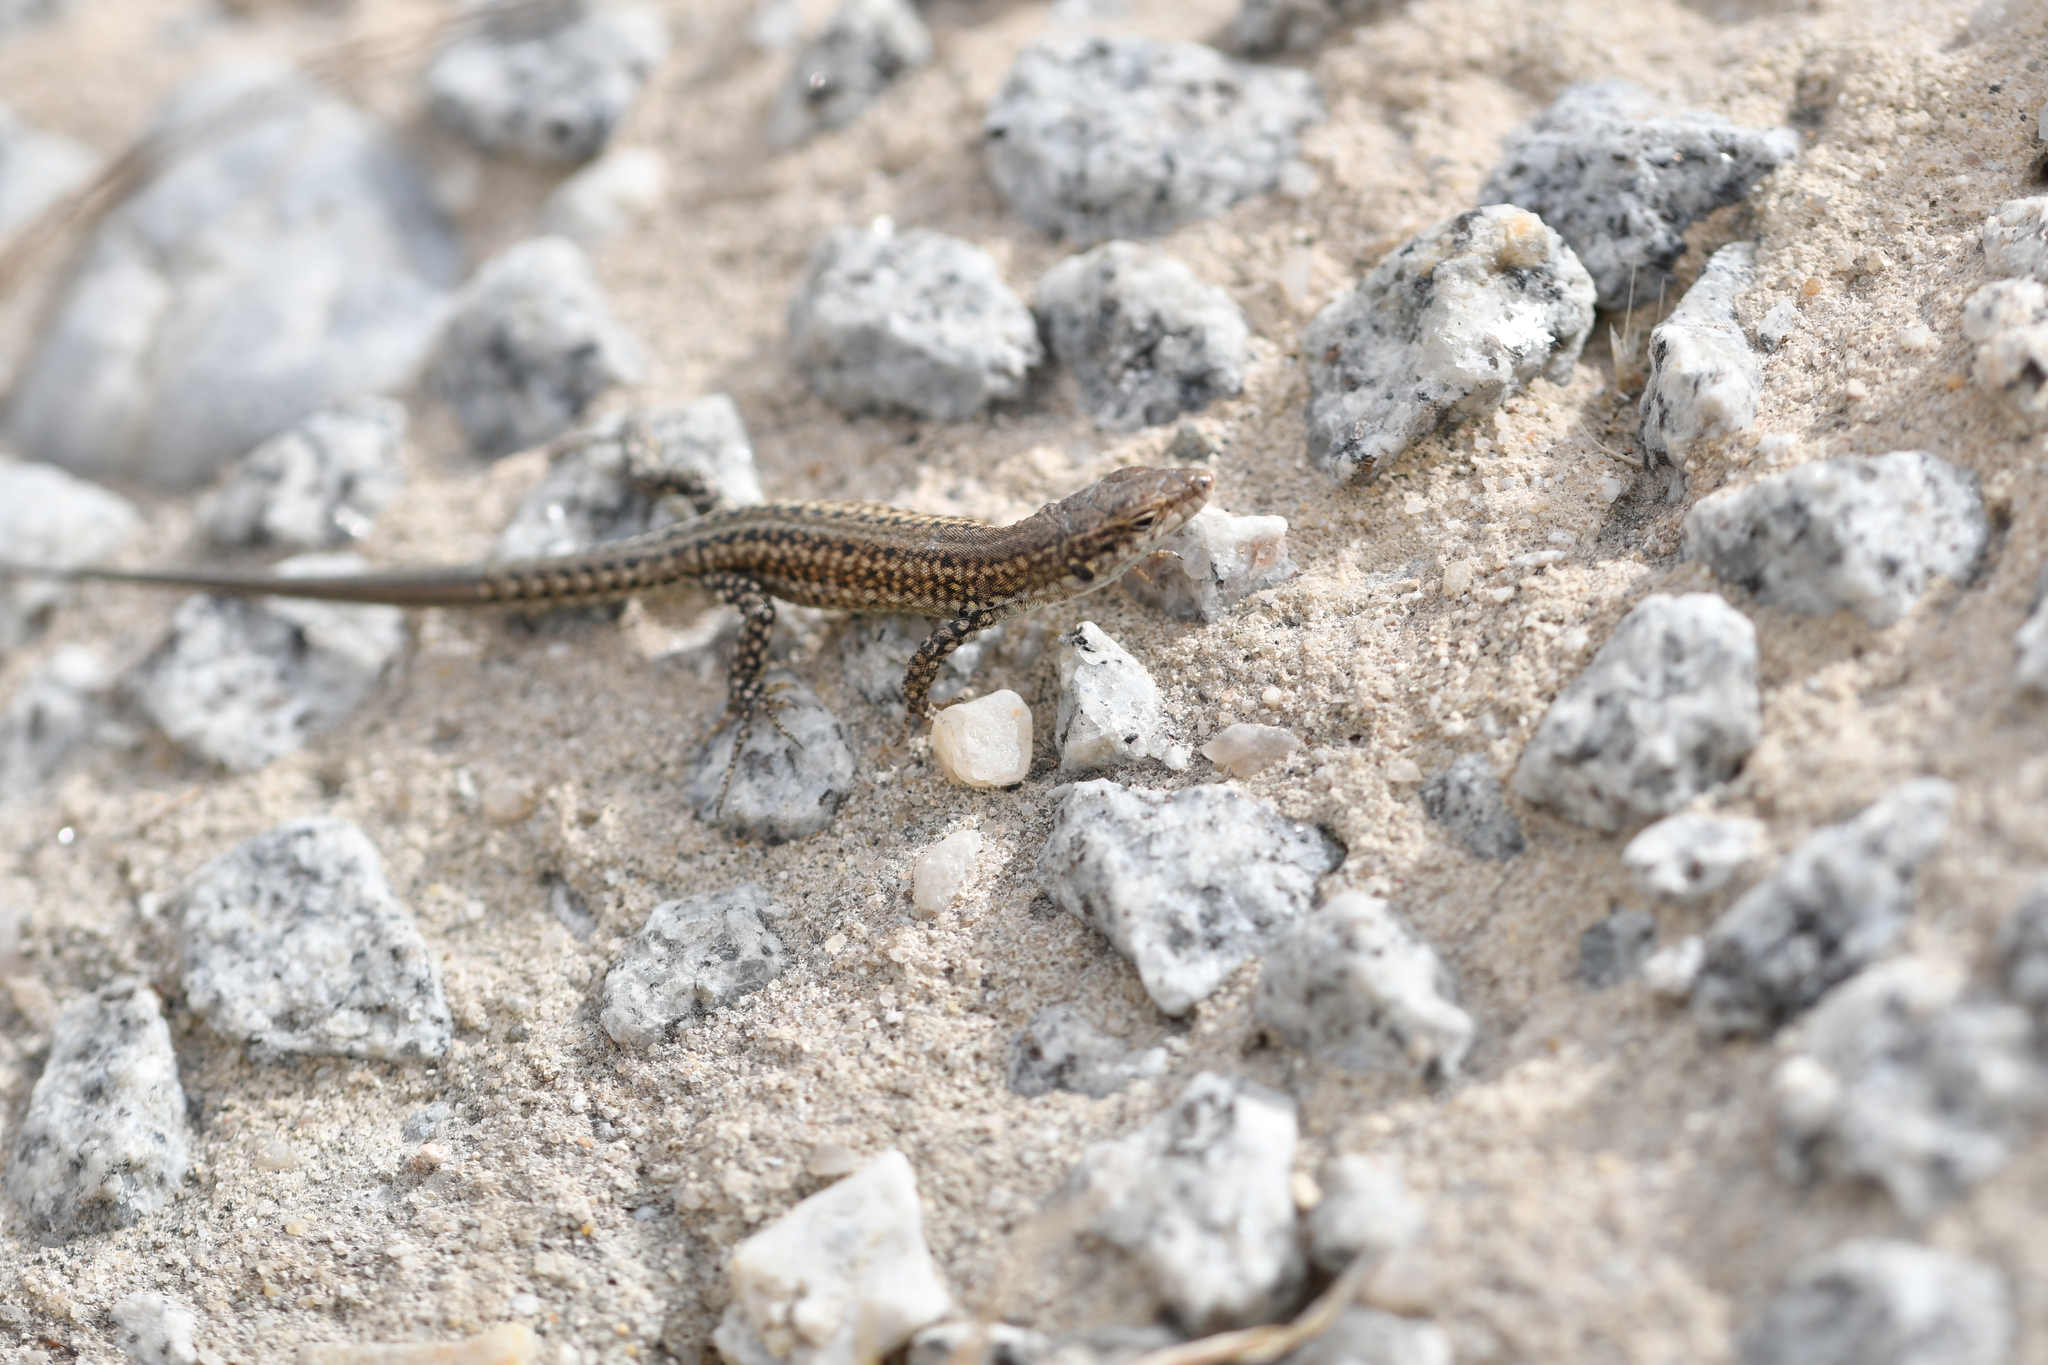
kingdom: Animalia
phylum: Chordata
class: Squamata
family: Lacertidae
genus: Podarcis
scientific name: Podarcis carbonelli
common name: Carbonelli's wall lizard
